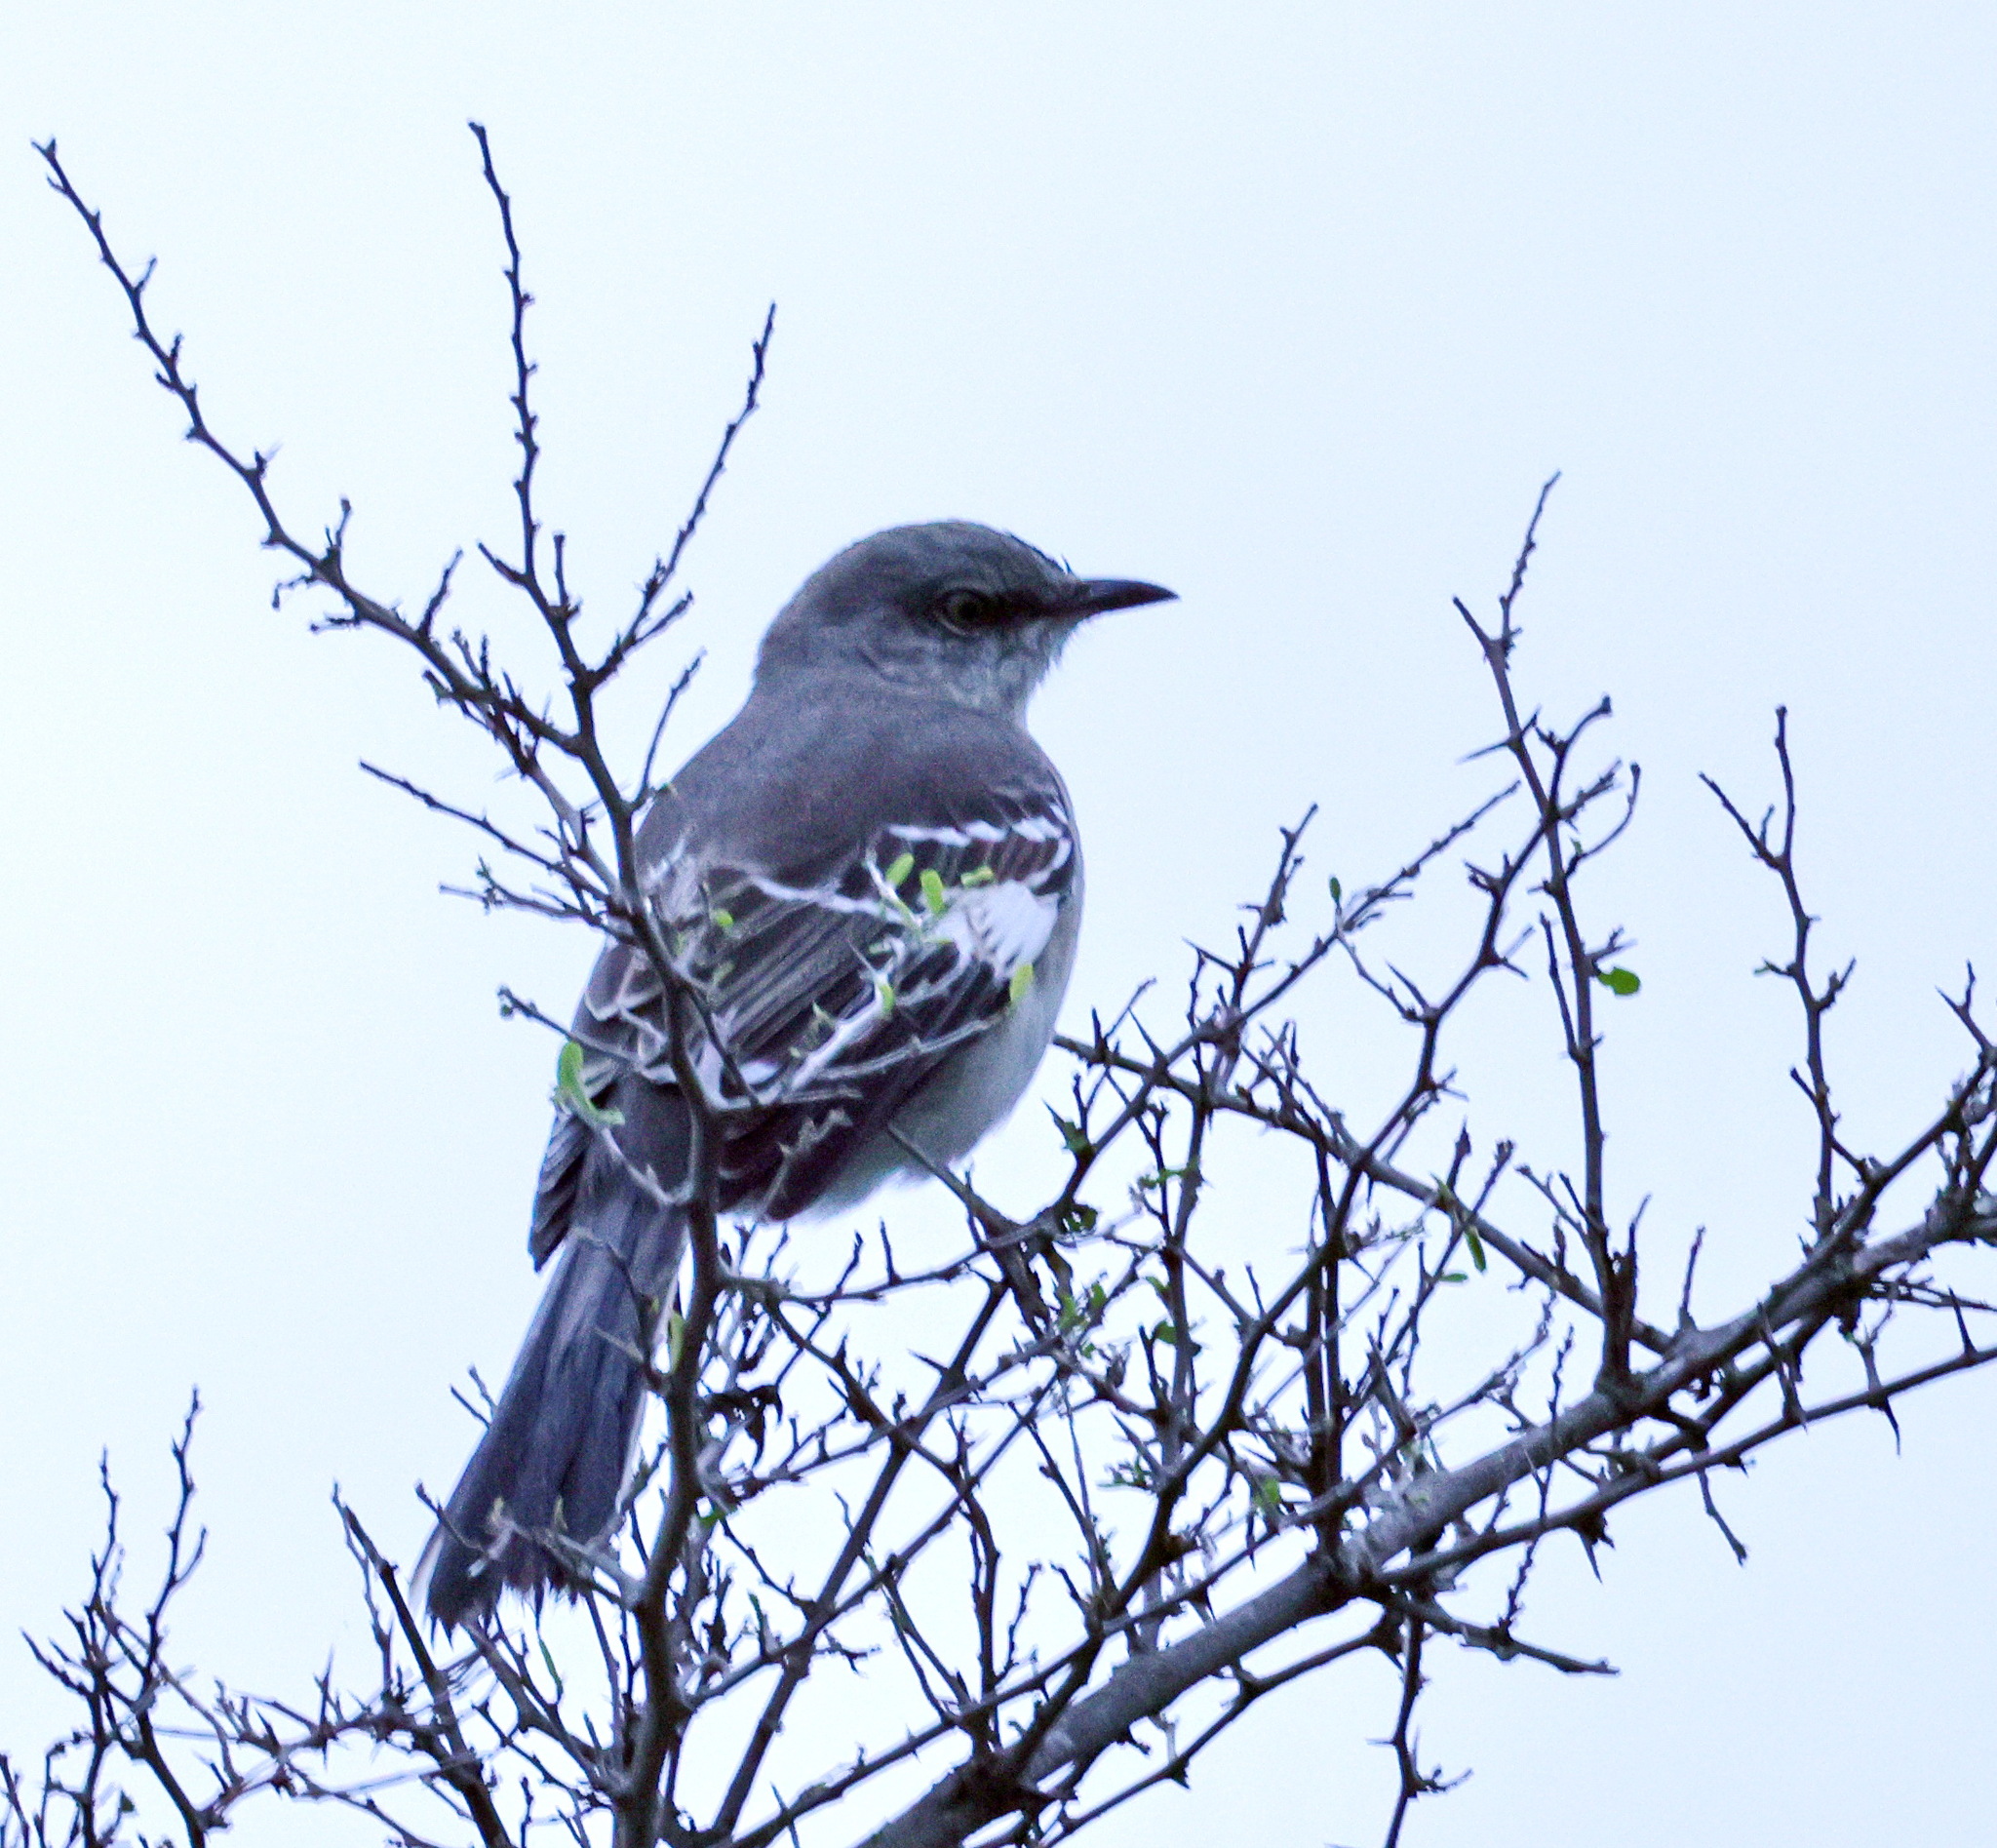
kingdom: Animalia
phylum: Chordata
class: Aves
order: Passeriformes
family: Mimidae
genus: Mimus
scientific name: Mimus polyglottos
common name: Northern mockingbird
